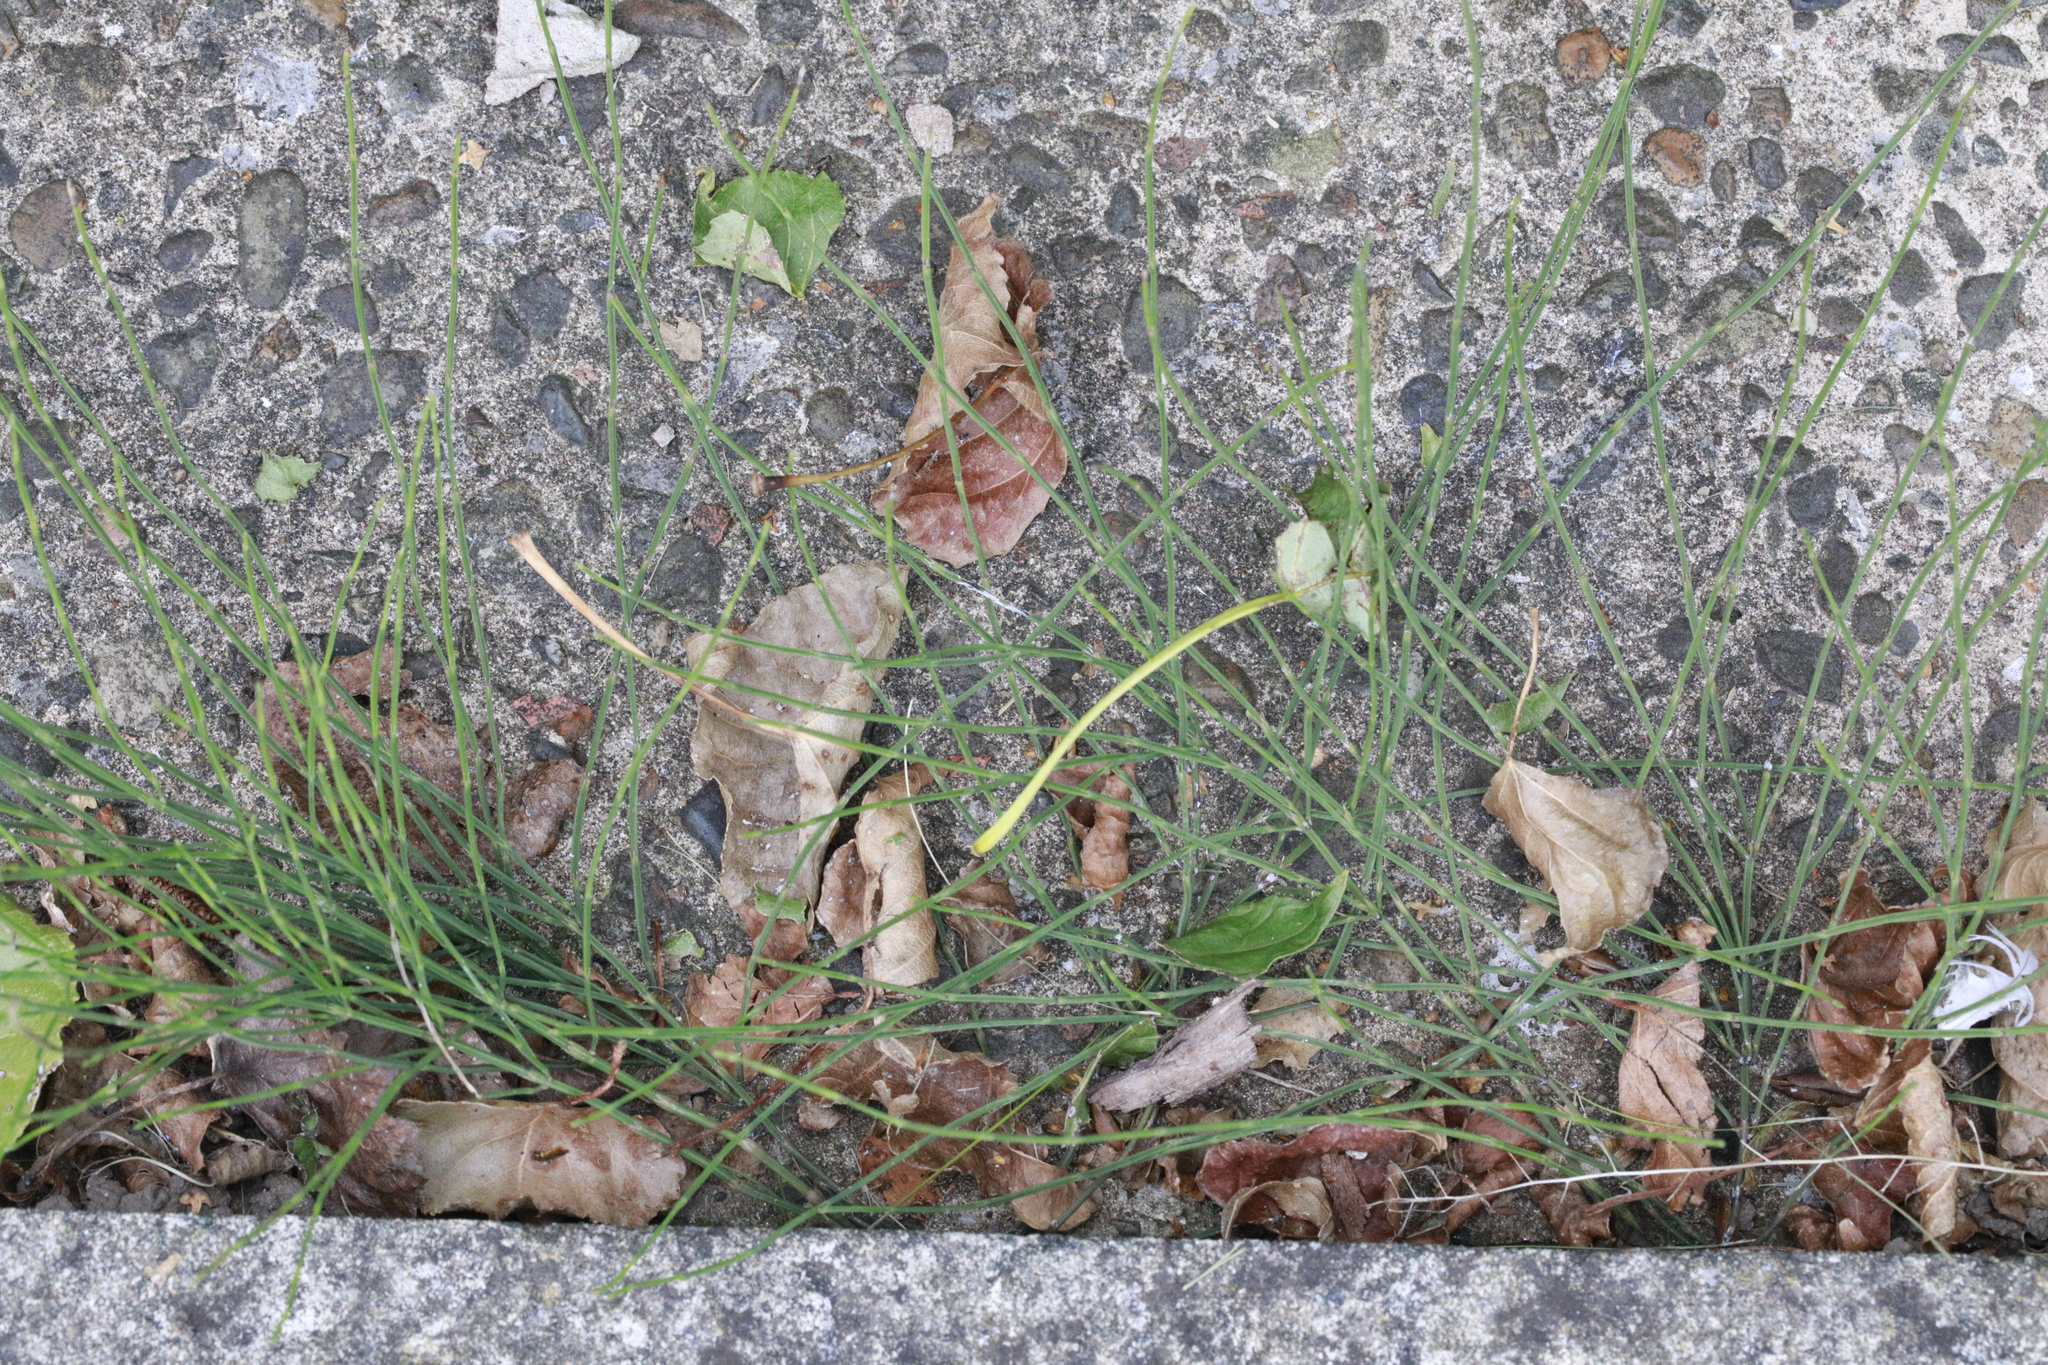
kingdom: Plantae
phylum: Tracheophyta
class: Polypodiopsida
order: Equisetales
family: Equisetaceae
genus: Equisetum
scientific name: Equisetum arvense
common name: Field horsetail
